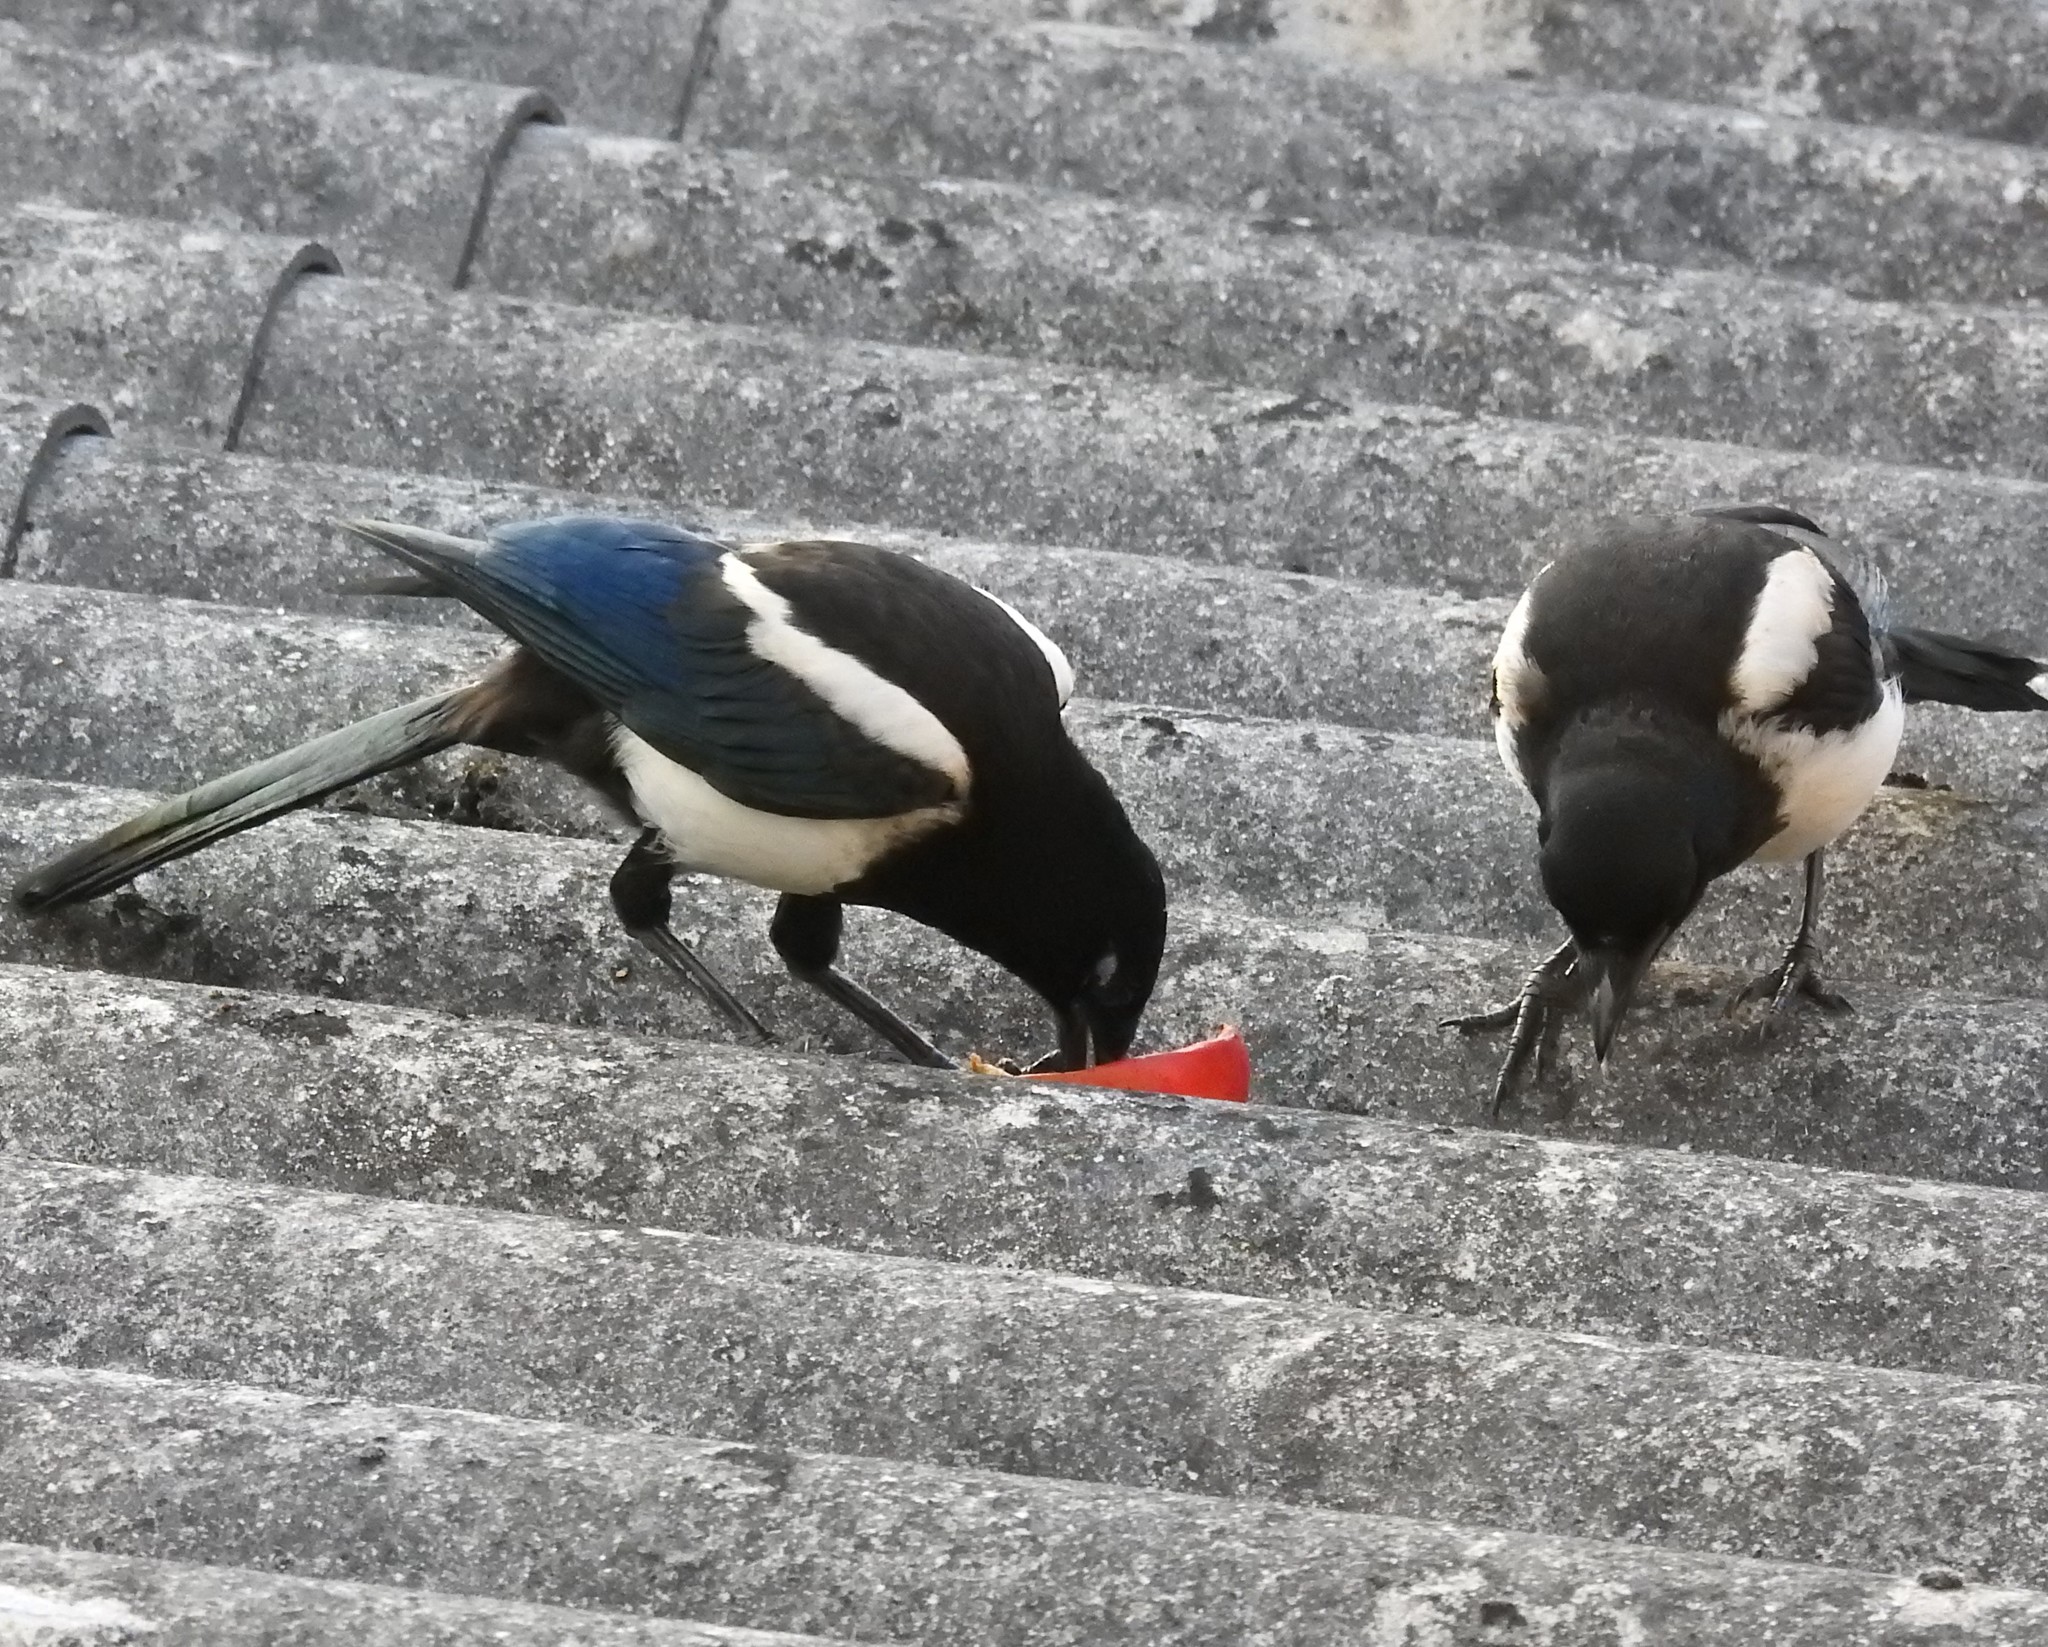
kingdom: Animalia
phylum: Chordata
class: Aves
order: Passeriformes
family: Corvidae
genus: Pica
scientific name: Pica pica
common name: Eurasian magpie
